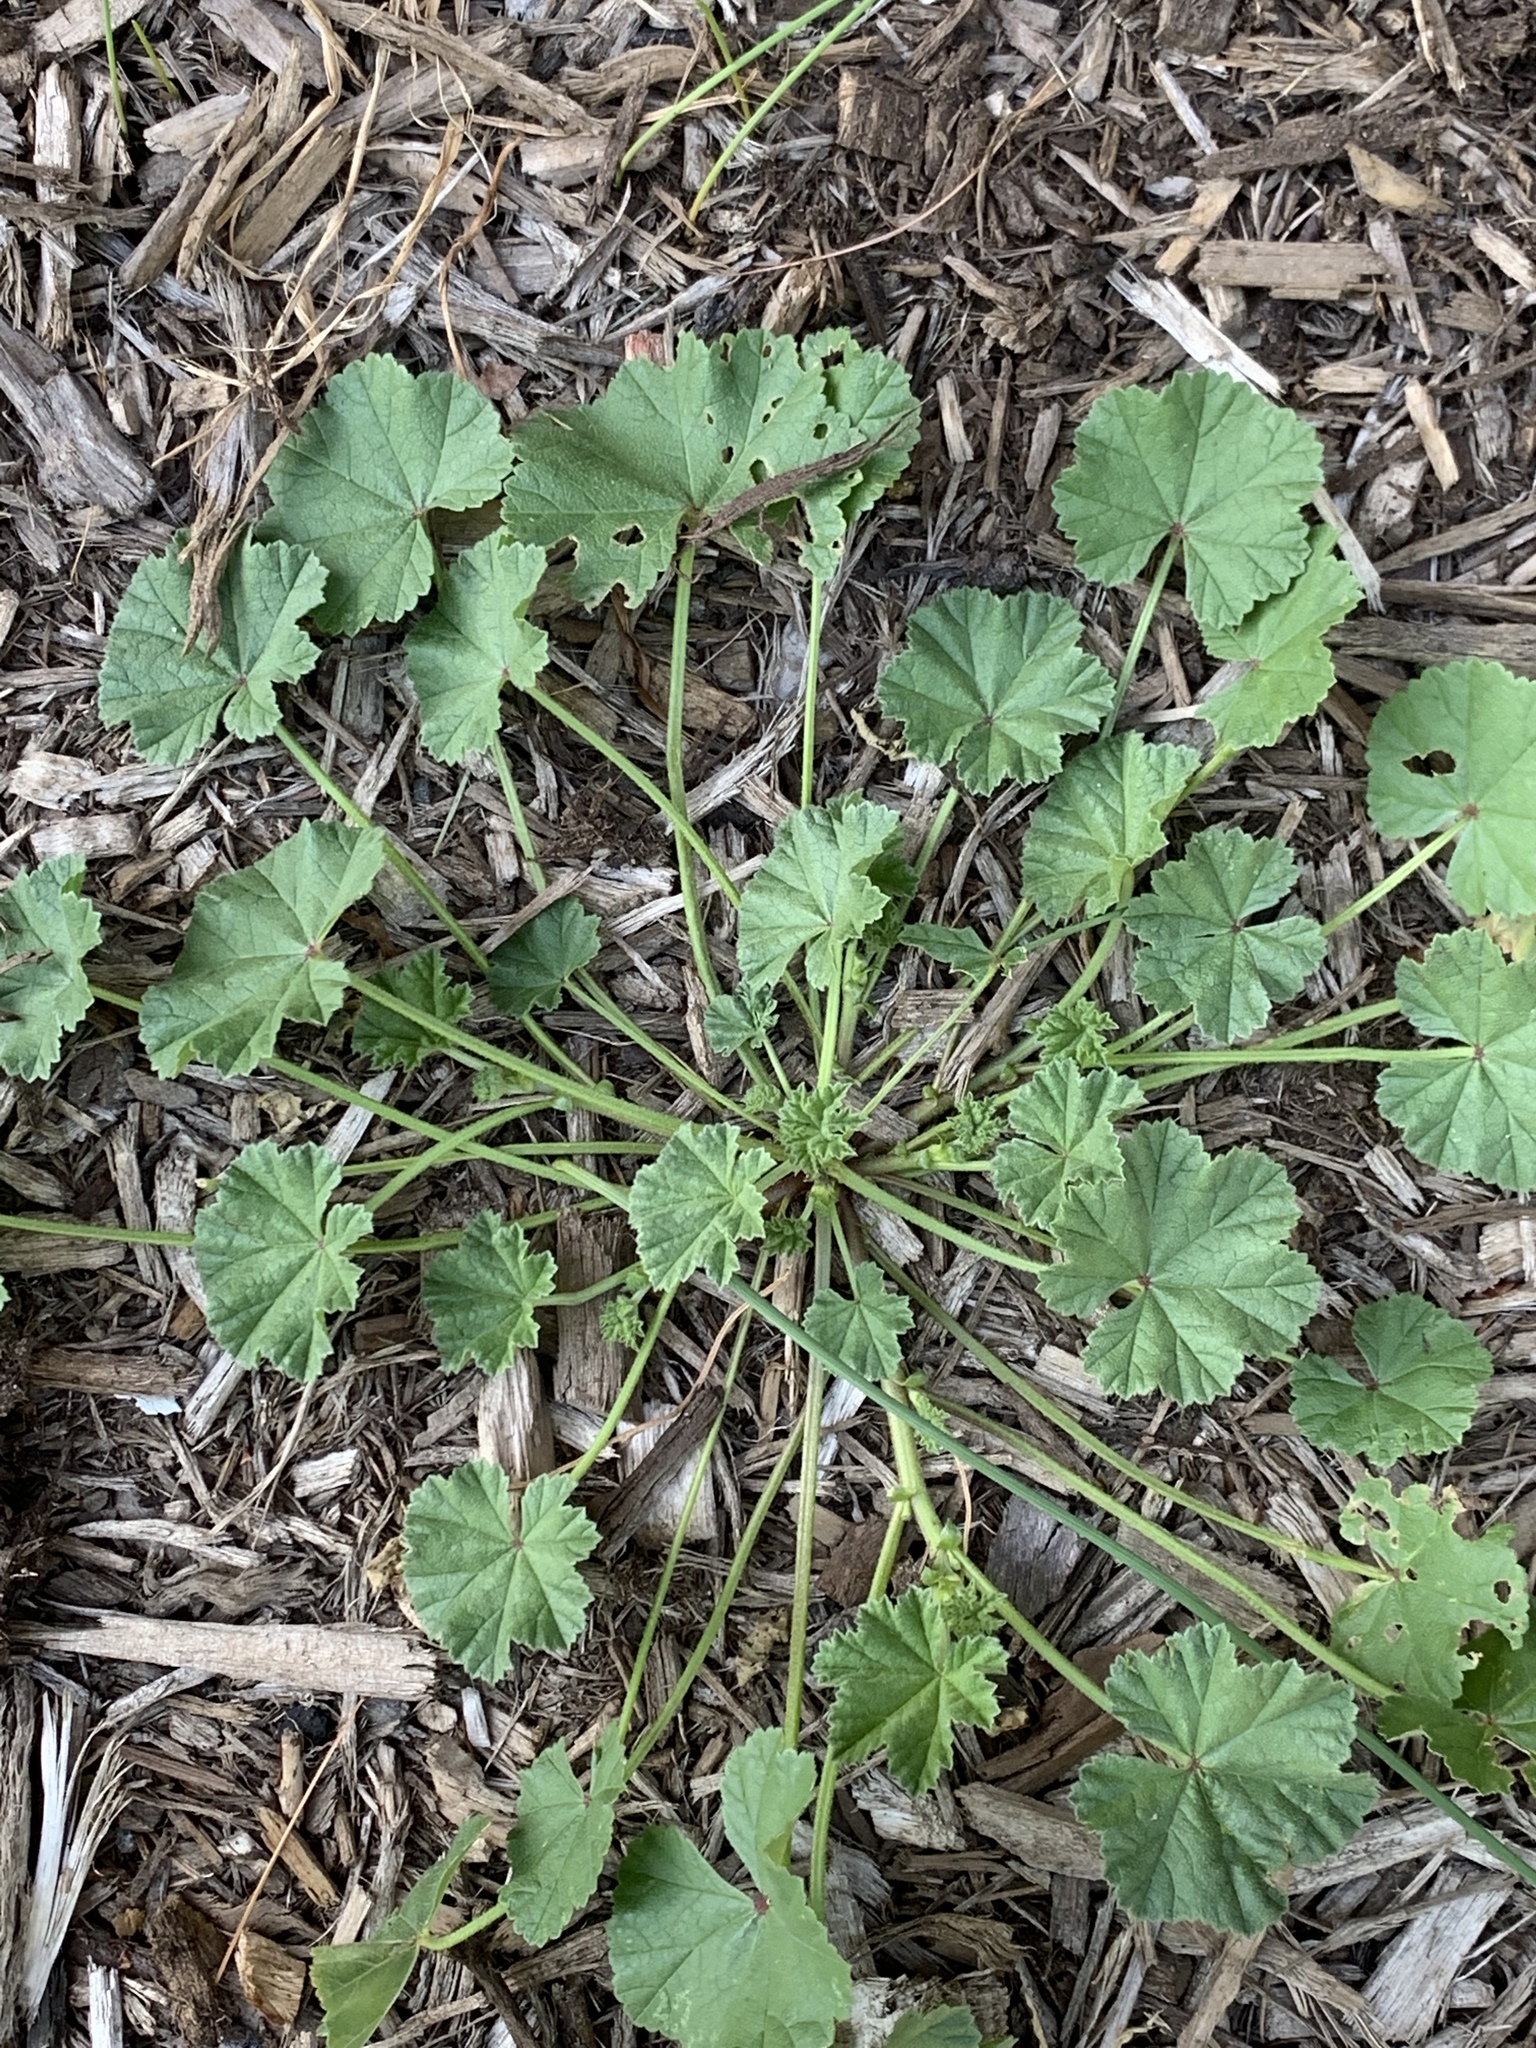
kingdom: Plantae
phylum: Tracheophyta
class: Magnoliopsida
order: Malvales
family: Malvaceae
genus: Malva
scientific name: Malva neglecta
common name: Common mallow
